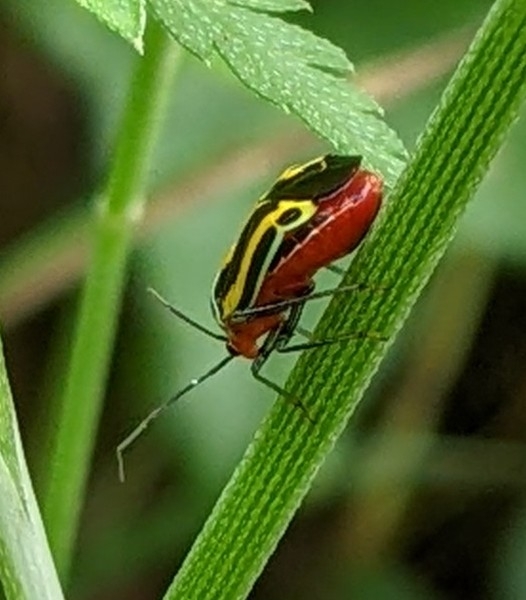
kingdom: Animalia
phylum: Arthropoda
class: Insecta
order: Hemiptera
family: Miridae
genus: Poecilocapsus
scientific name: Poecilocapsus lineatus
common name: Four-lined plant bug
